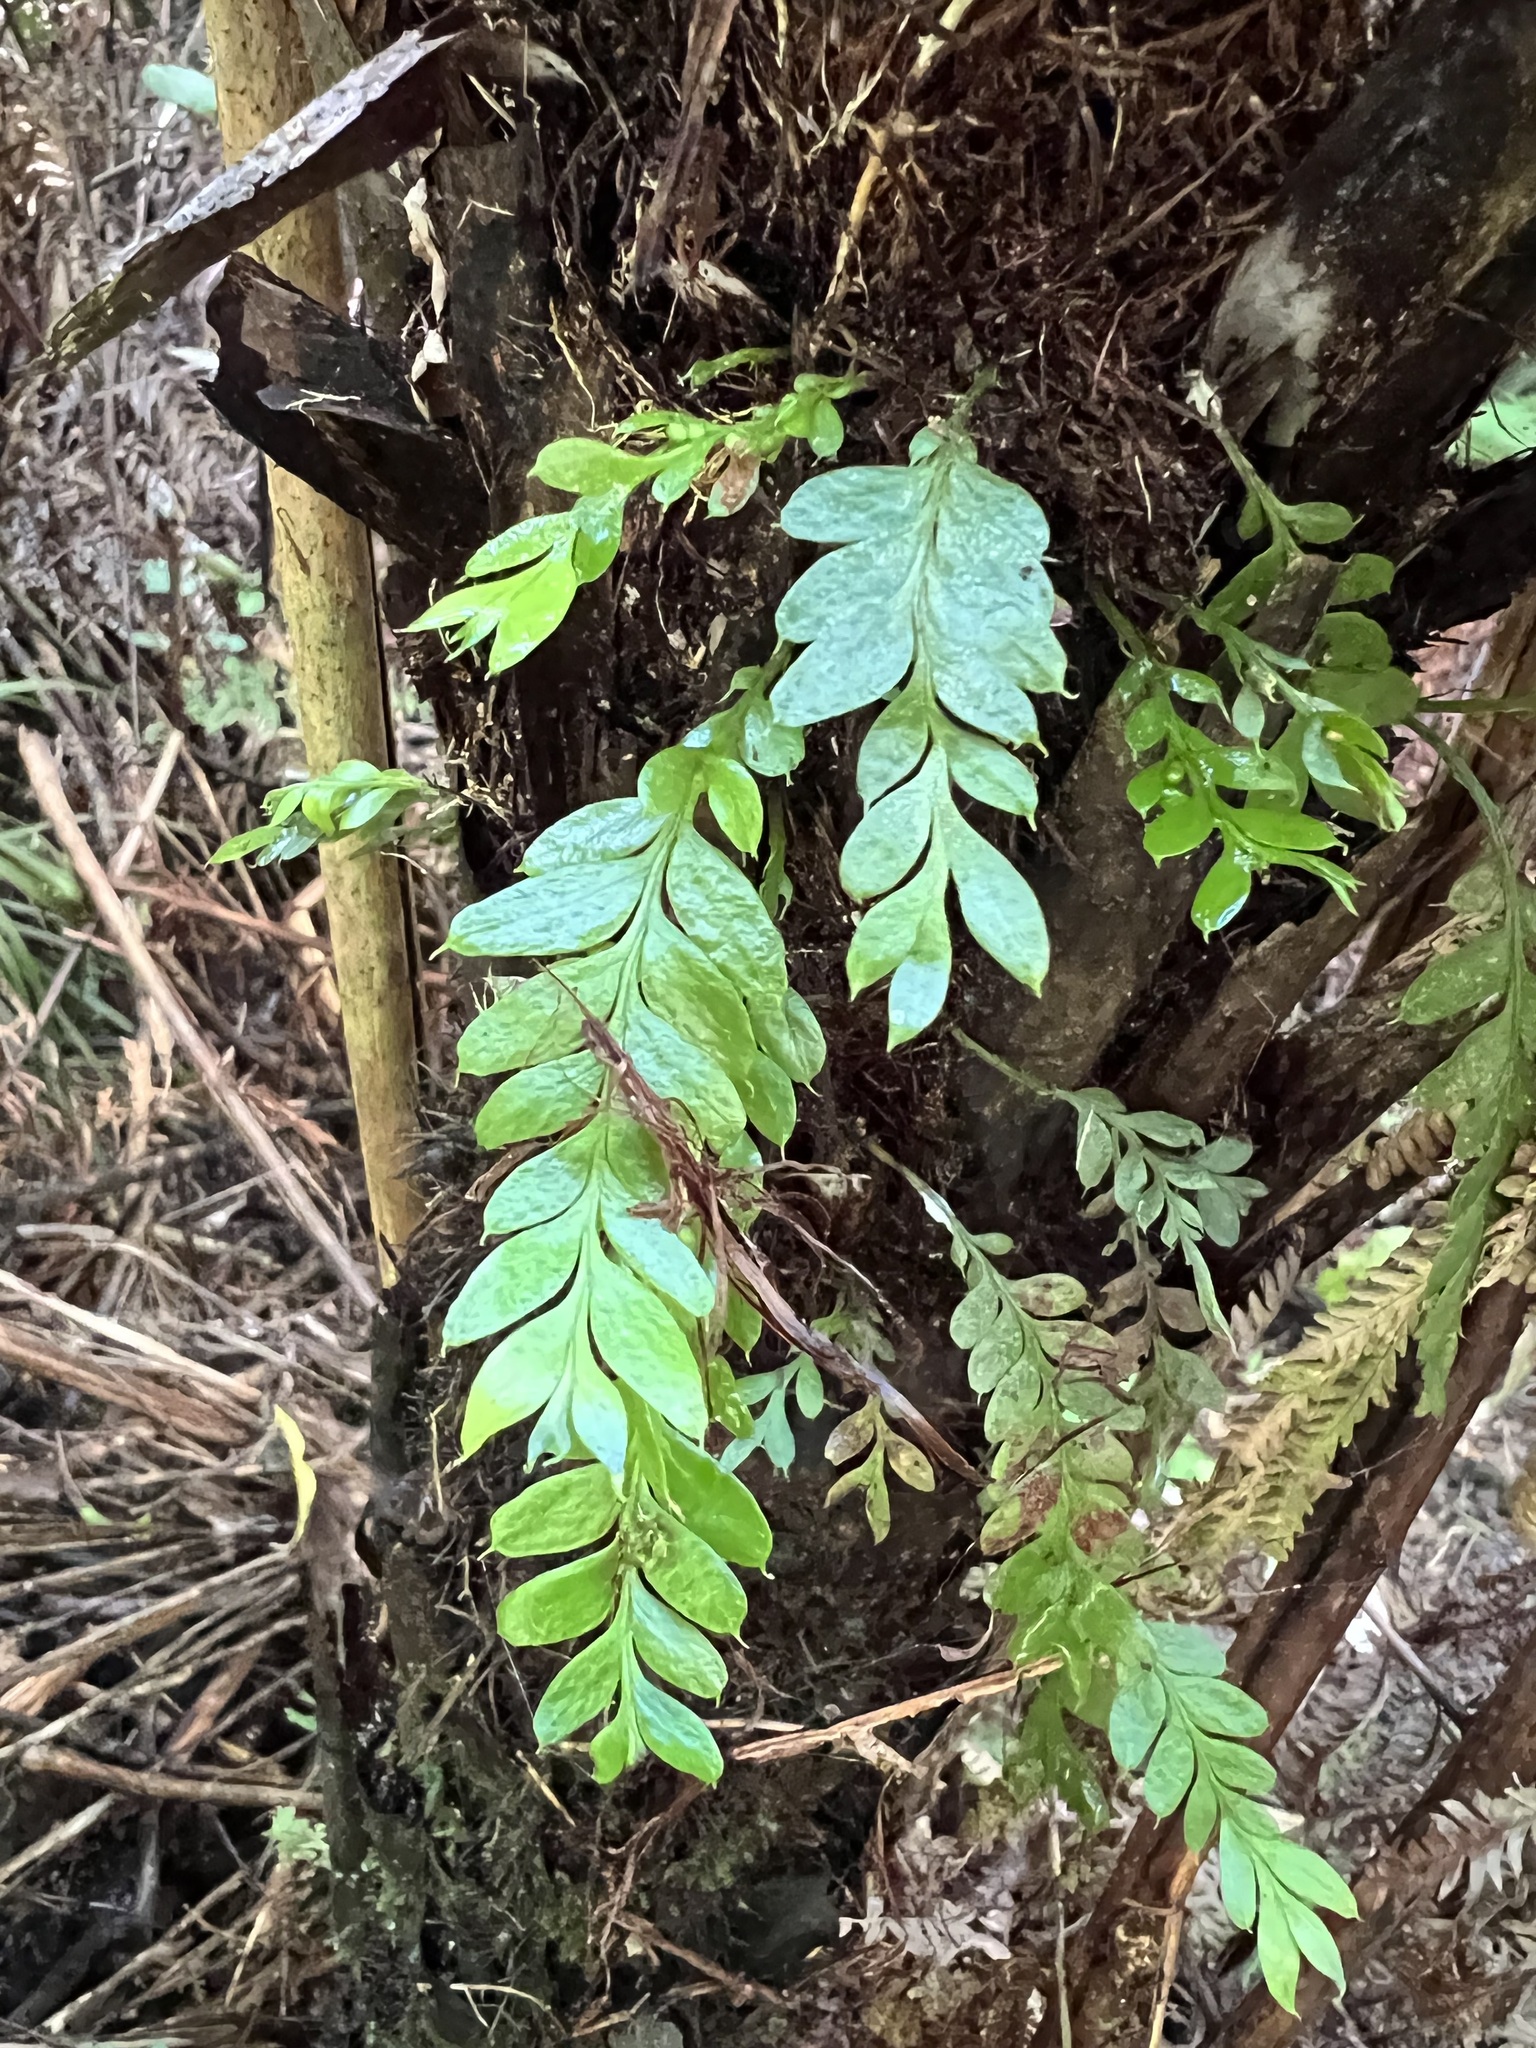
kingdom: Plantae
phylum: Tracheophyta
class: Polypodiopsida
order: Psilotales
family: Psilotaceae
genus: Tmesipteris
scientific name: Tmesipteris lanceolata
